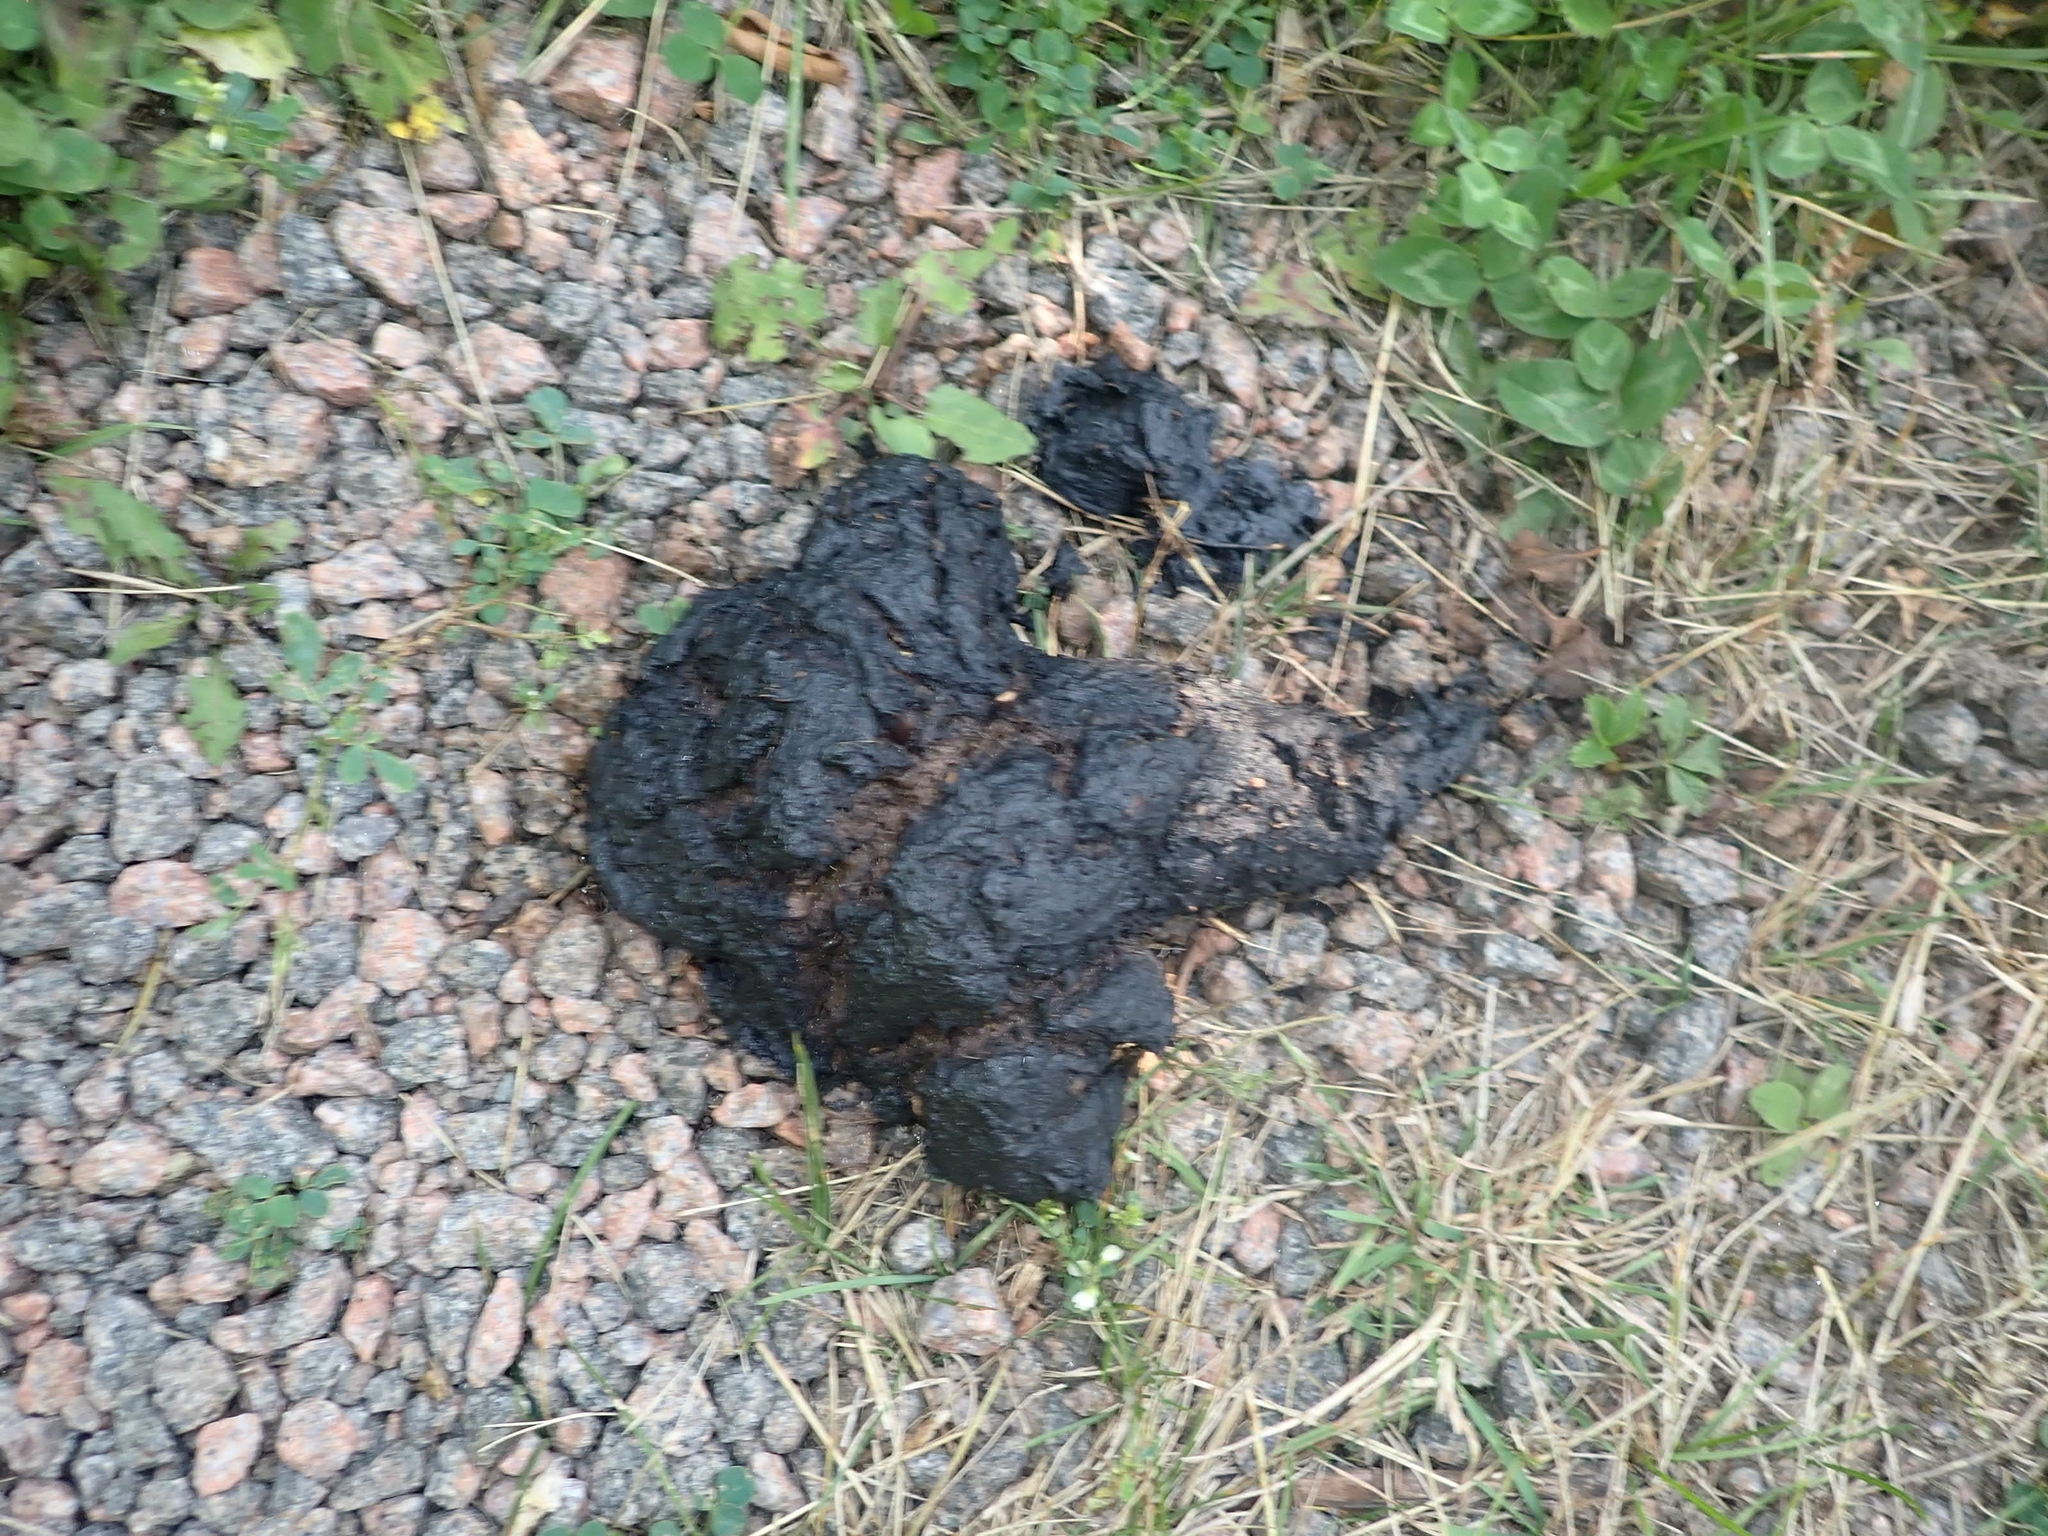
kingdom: Animalia
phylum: Chordata
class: Mammalia
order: Carnivora
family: Ursidae
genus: Ursus
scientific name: Ursus americanus
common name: American black bear
